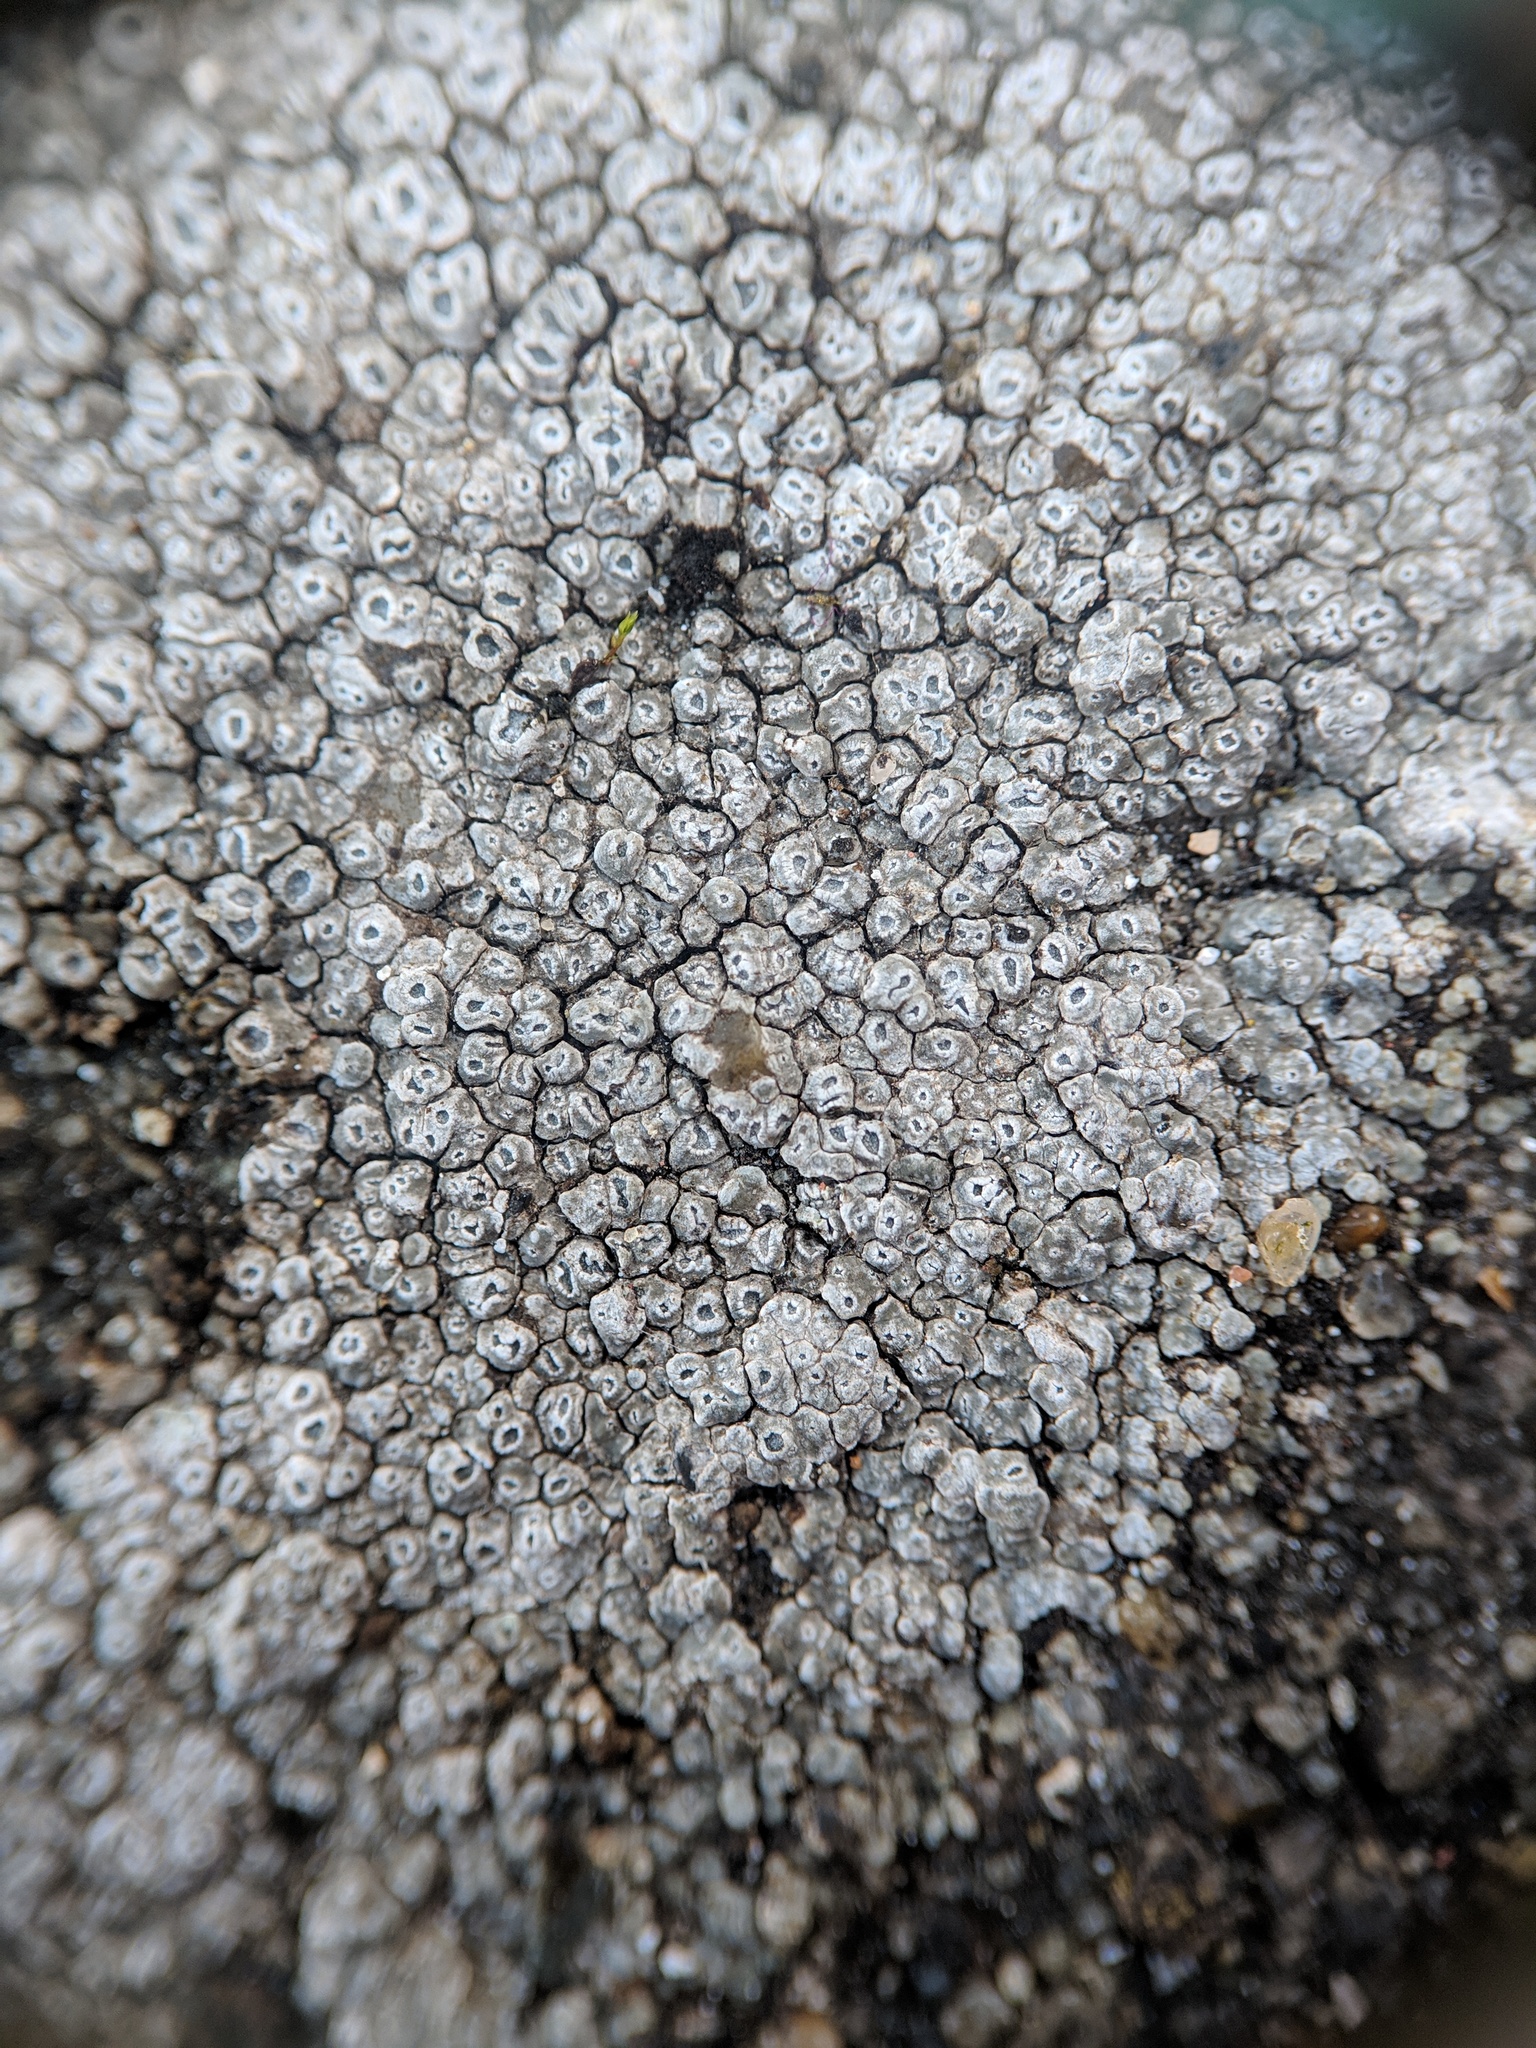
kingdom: Fungi
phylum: Ascomycota
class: Lecanoromycetes
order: Pertusariales
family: Megasporaceae
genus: Circinaria
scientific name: Circinaria contorta
